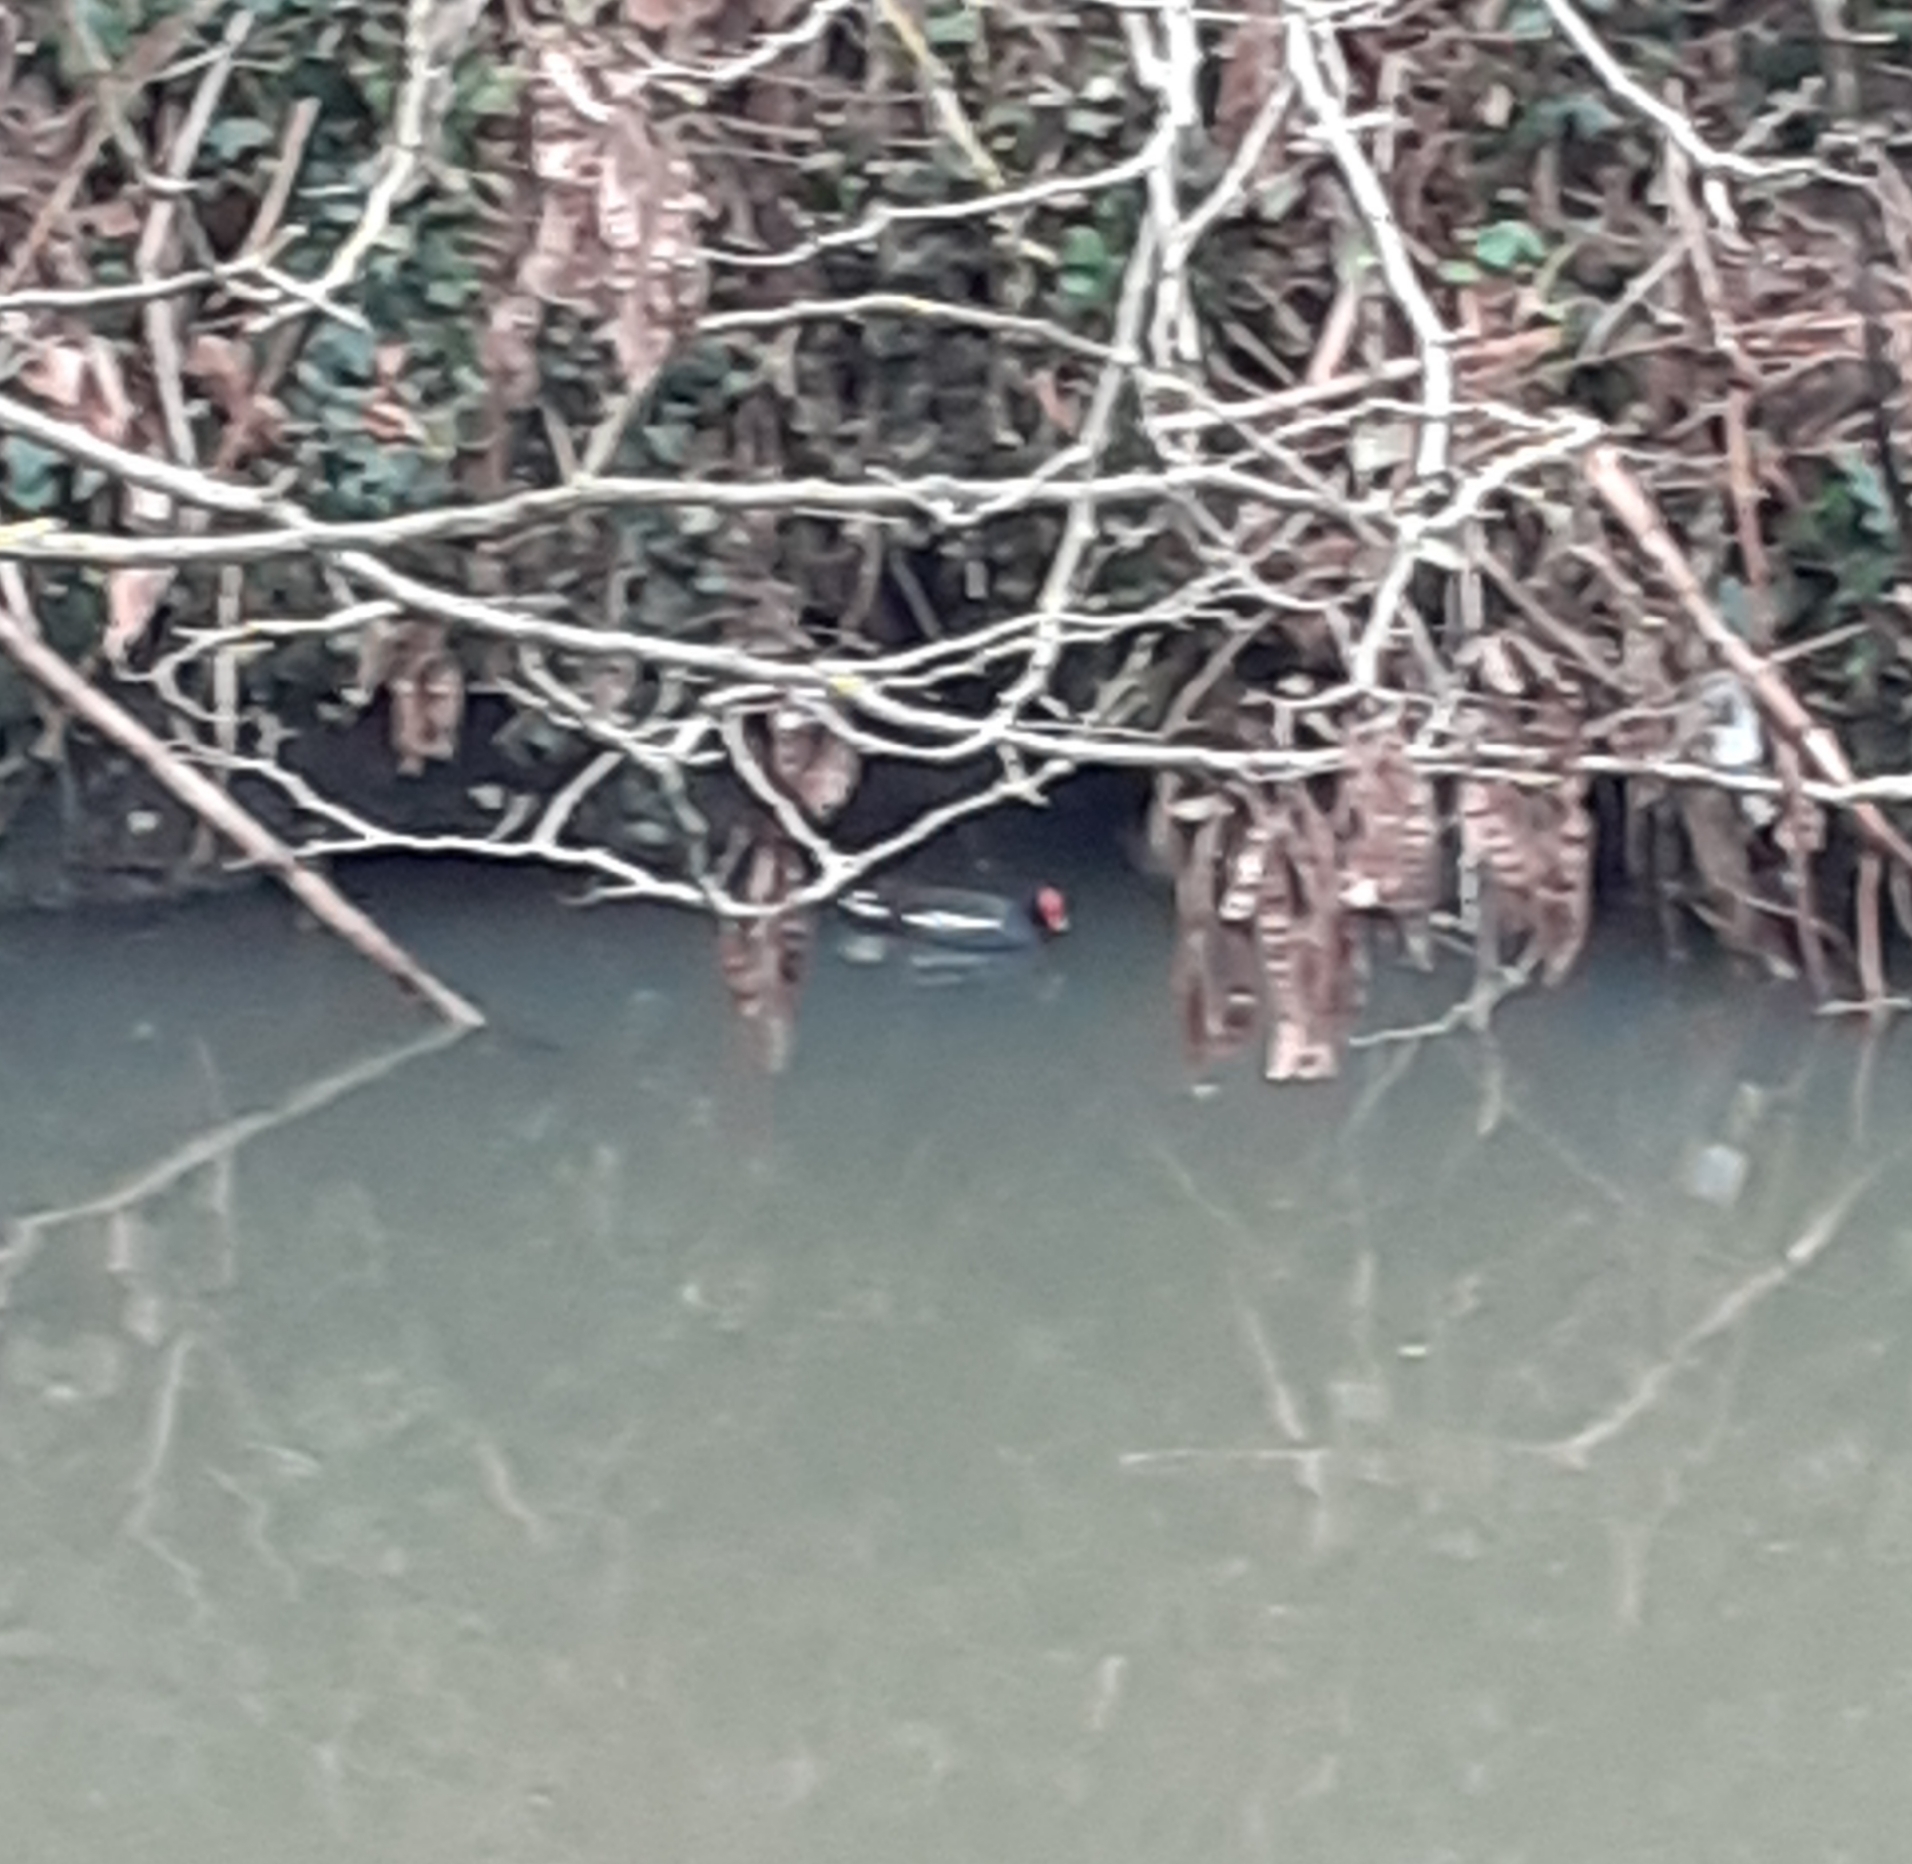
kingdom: Animalia
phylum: Chordata
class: Aves
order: Gruiformes
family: Rallidae
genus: Gallinula
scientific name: Gallinula chloropus
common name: Common moorhen
